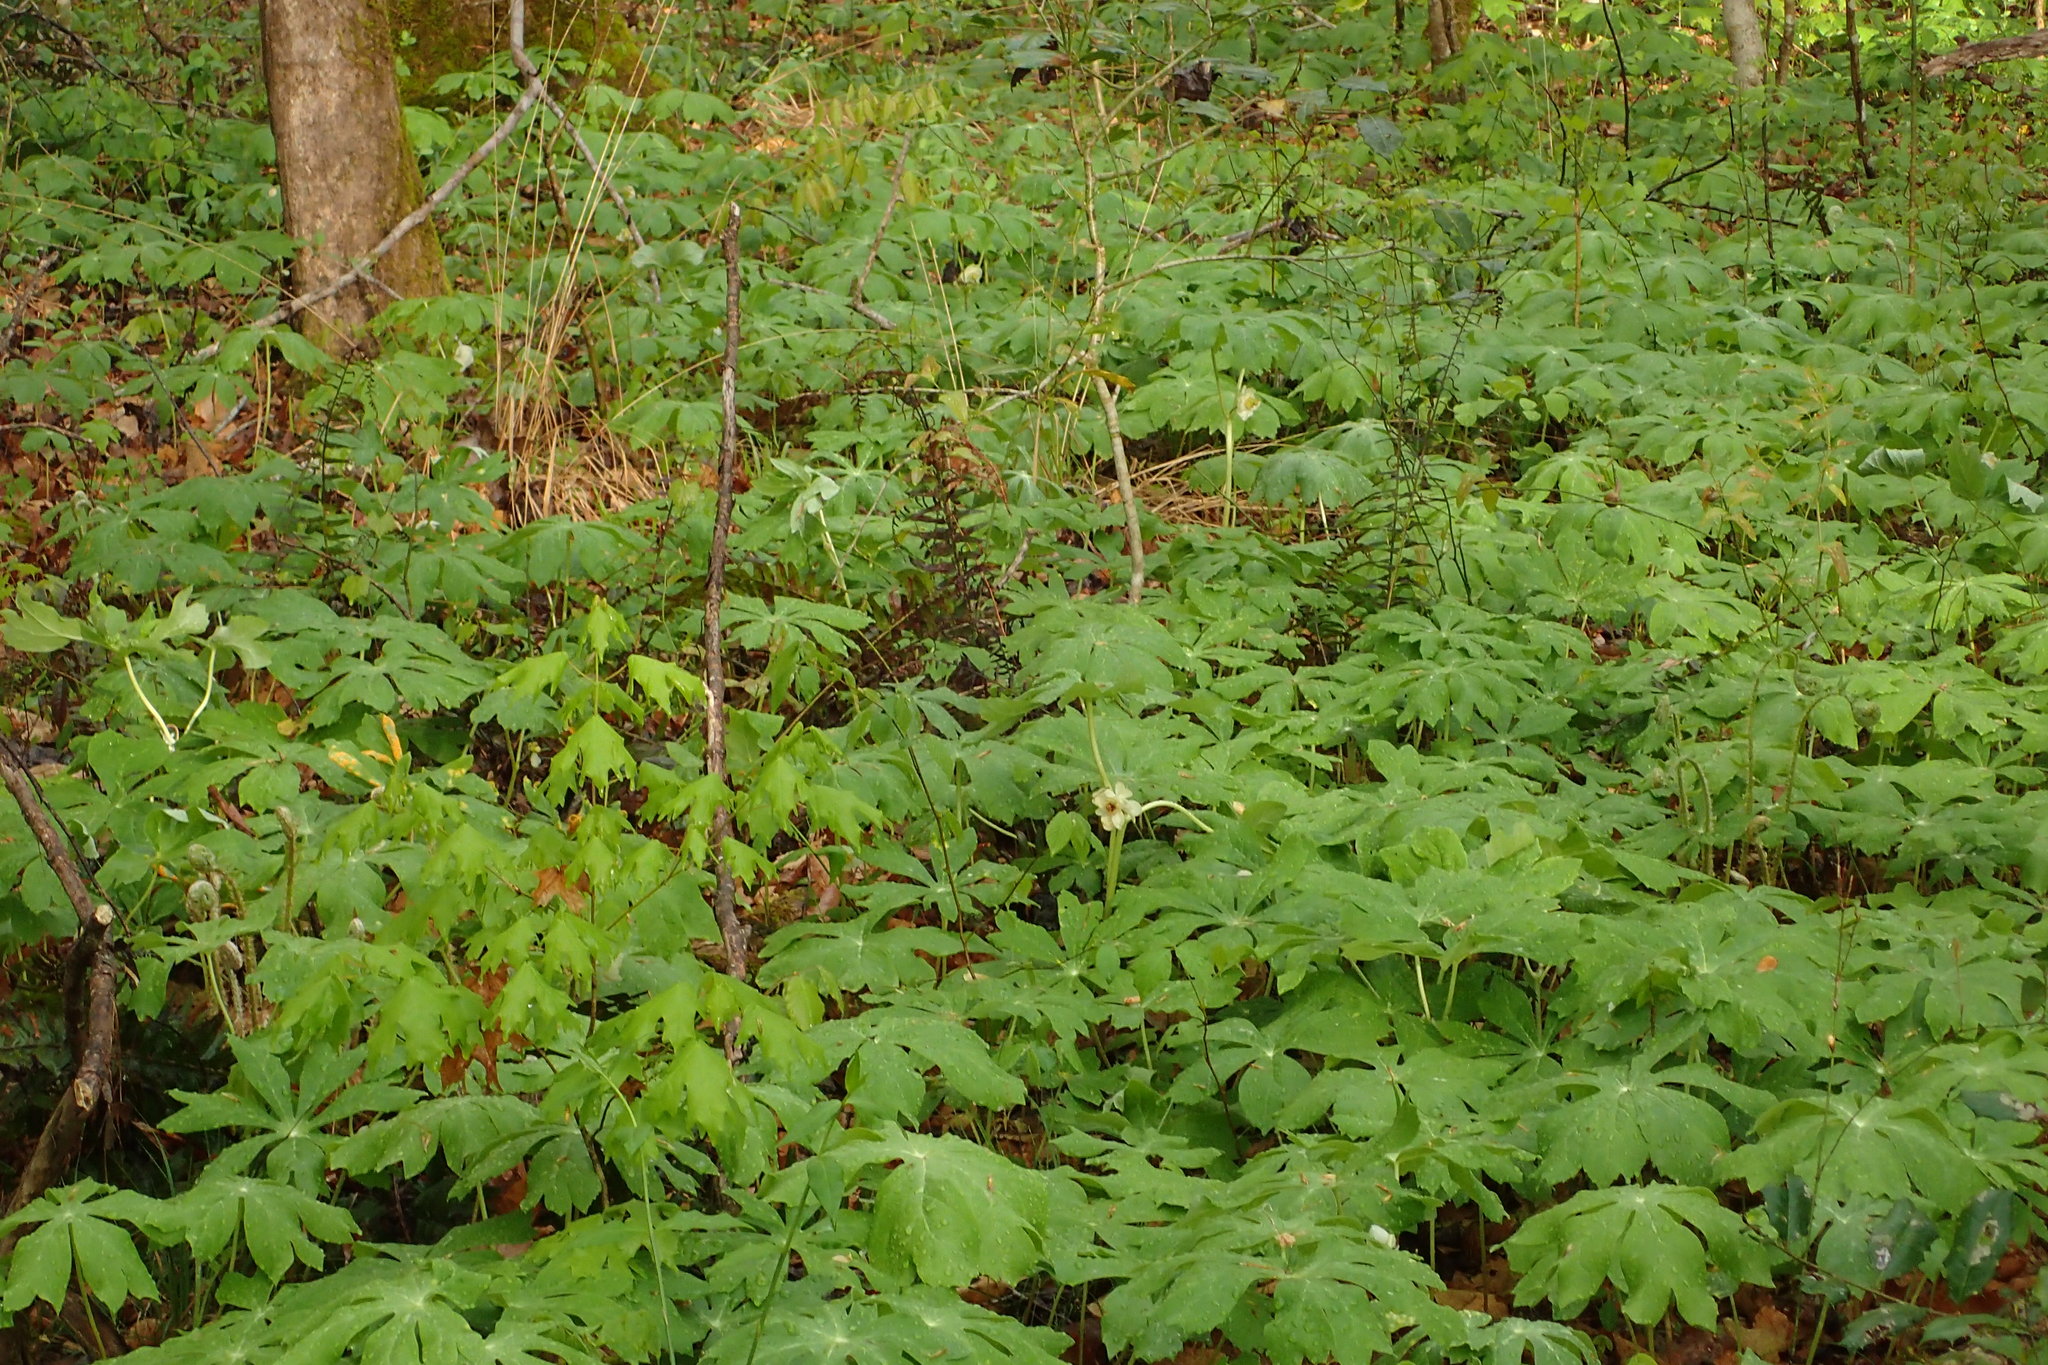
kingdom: Plantae
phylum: Tracheophyta
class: Magnoliopsida
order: Ranunculales
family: Berberidaceae
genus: Podophyllum
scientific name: Podophyllum peltatum
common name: Wild mandrake
